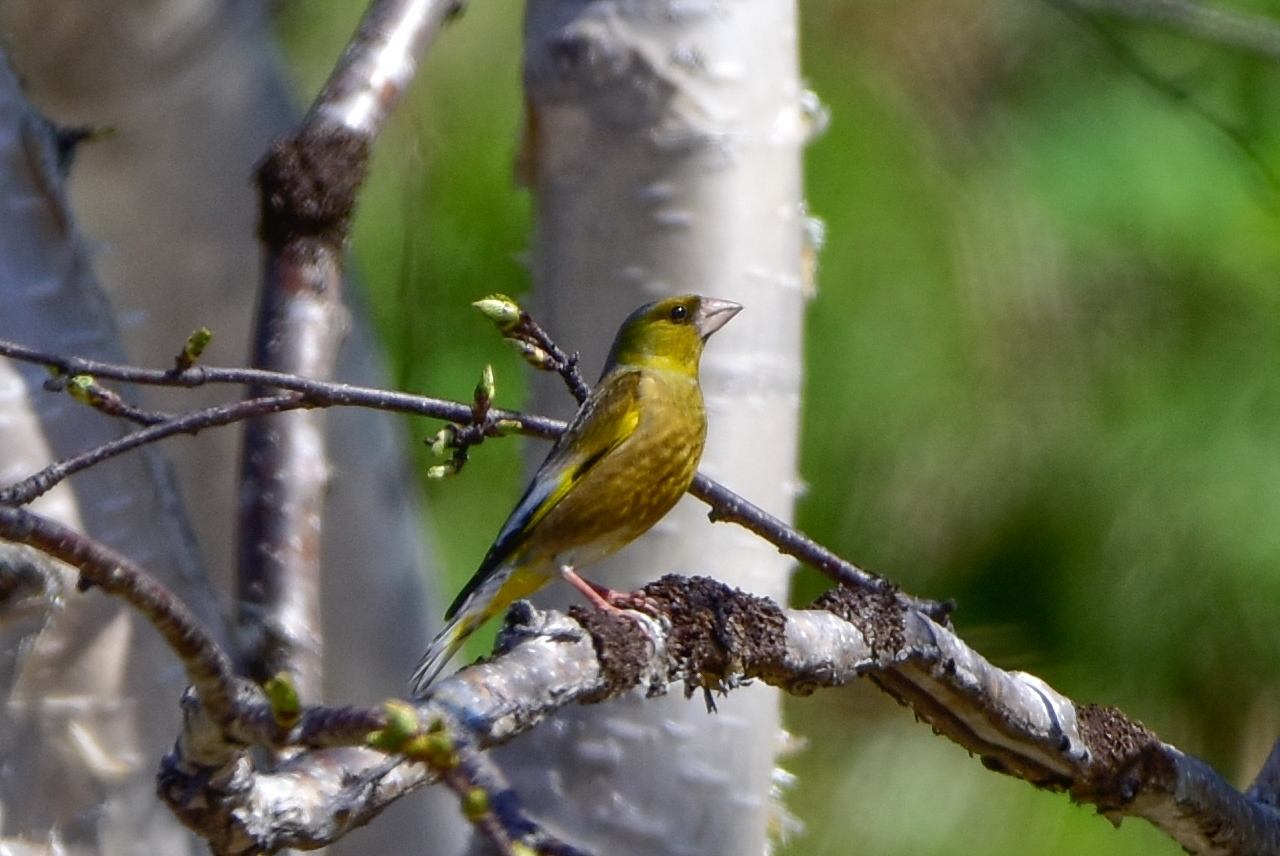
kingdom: Plantae
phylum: Tracheophyta
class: Liliopsida
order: Poales
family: Poaceae
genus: Chloris
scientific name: Chloris sinica
